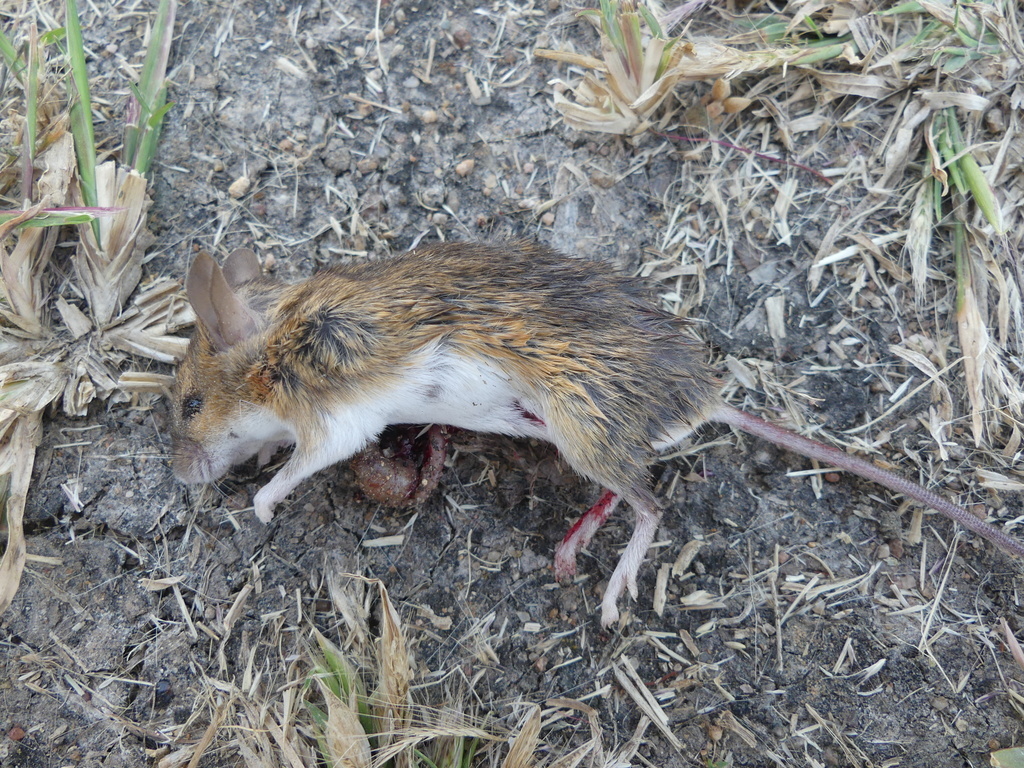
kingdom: Animalia
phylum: Chordata
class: Mammalia
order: Rodentia
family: Muridae
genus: Mus
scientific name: Mus minutoides
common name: Southern african pygmy mouse
